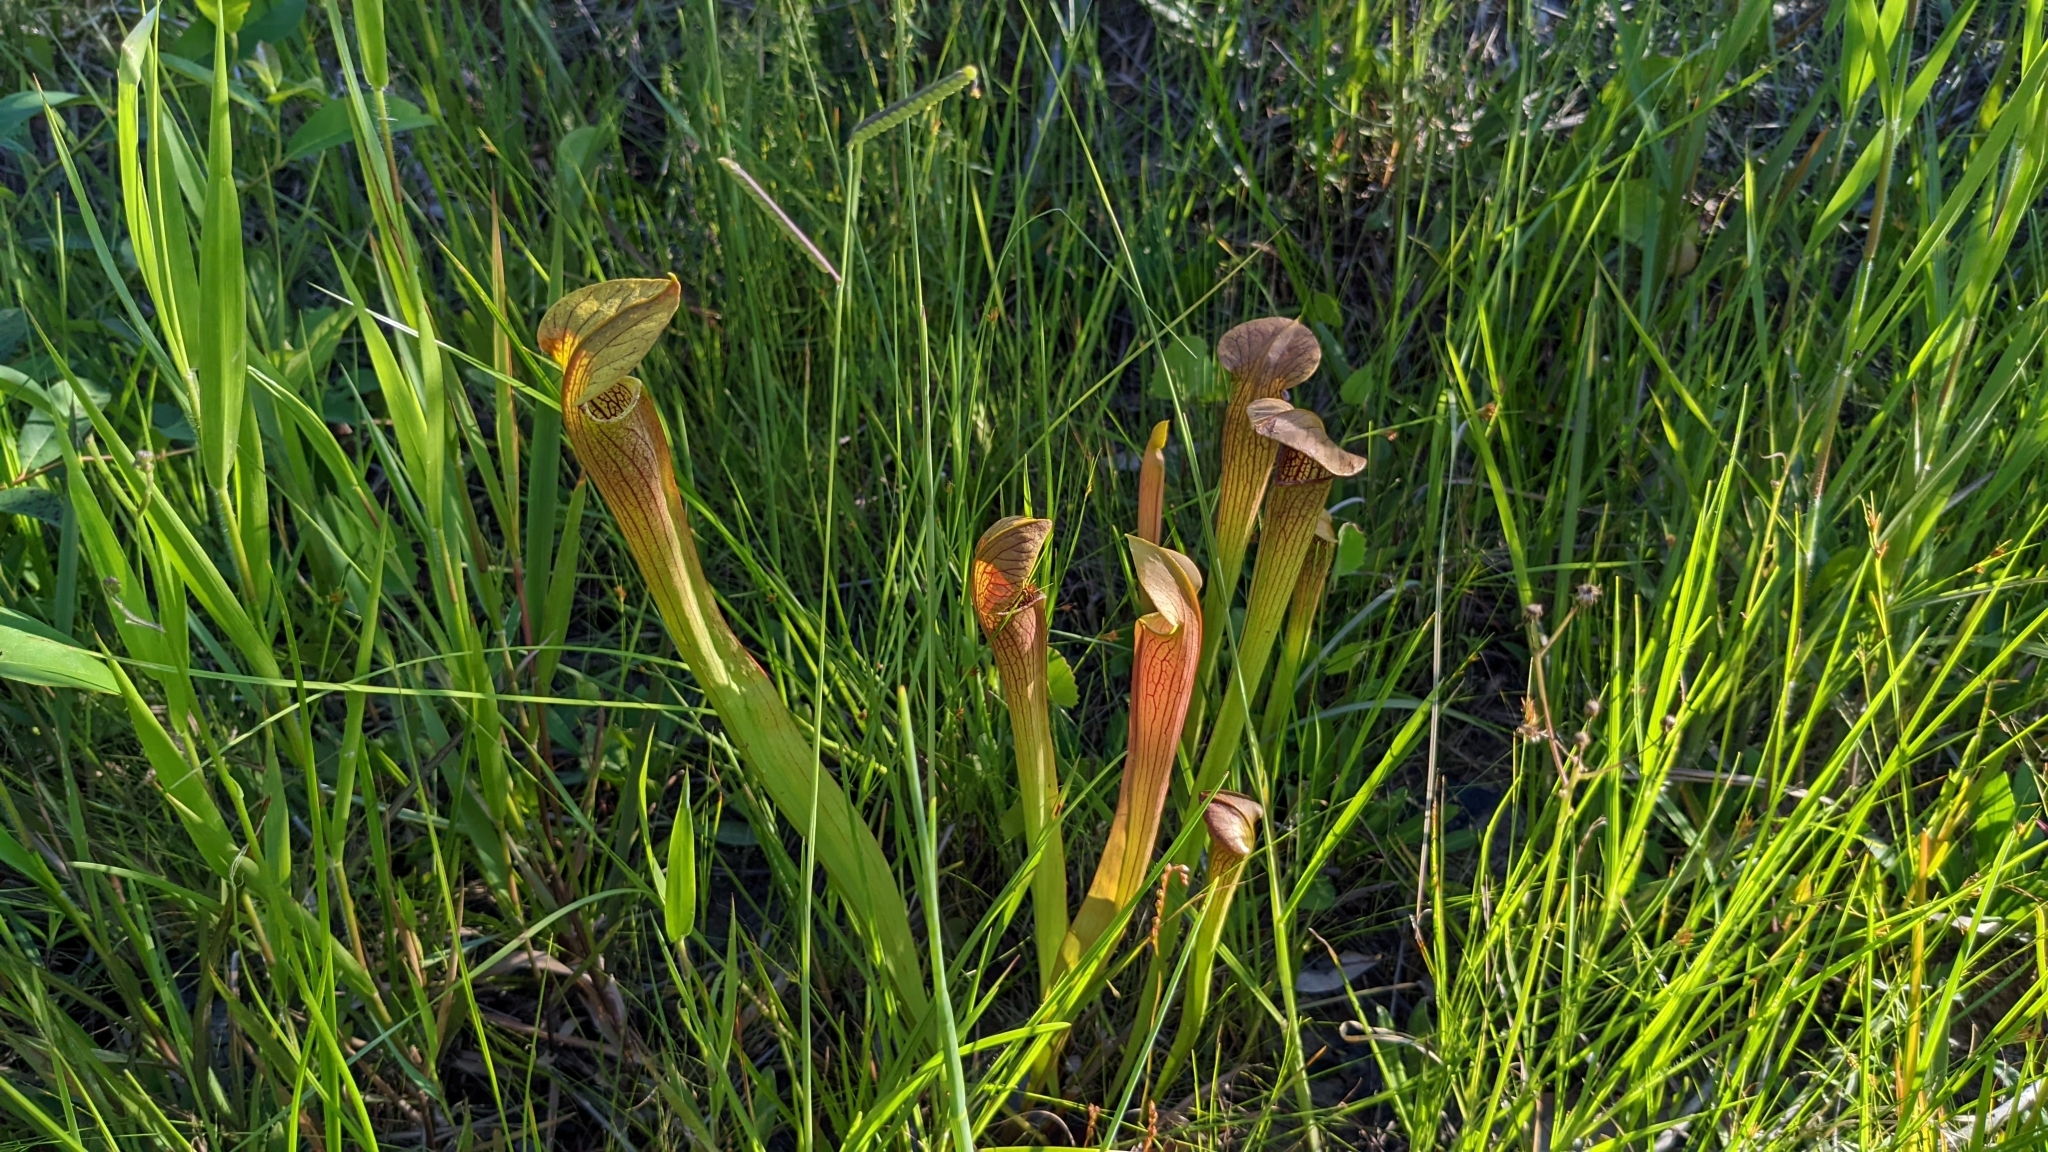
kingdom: Plantae
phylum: Tracheophyta
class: Magnoliopsida
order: Ericales
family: Sarraceniaceae
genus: Sarracenia
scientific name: Sarracenia alata
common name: Yellow trumpets
